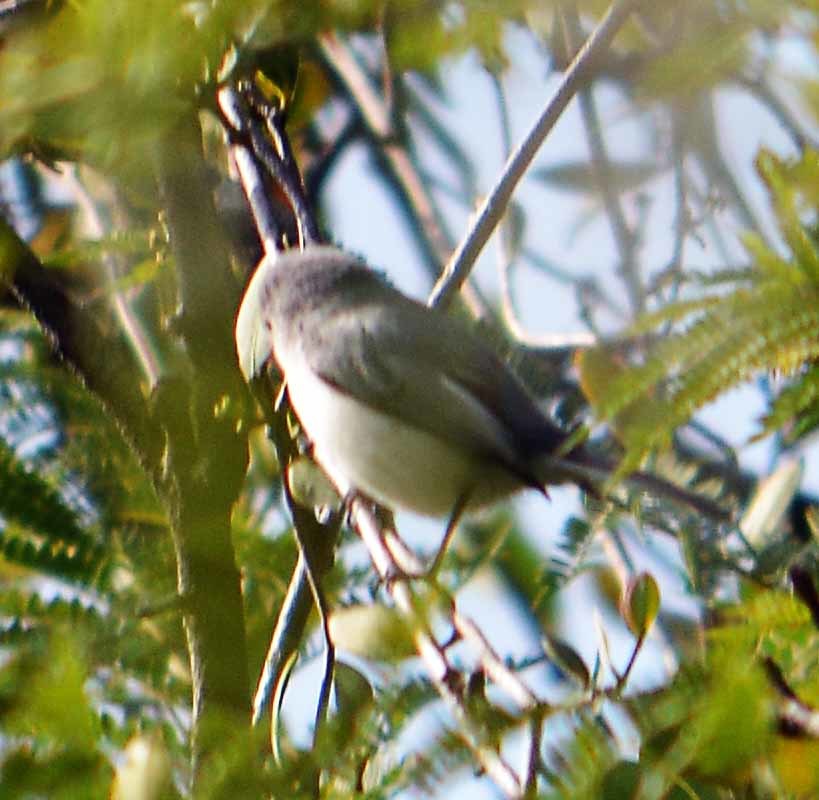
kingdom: Animalia
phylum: Chordata
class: Aves
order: Passeriformes
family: Polioptilidae
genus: Polioptila
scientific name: Polioptila caerulea
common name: Blue-gray gnatcatcher
